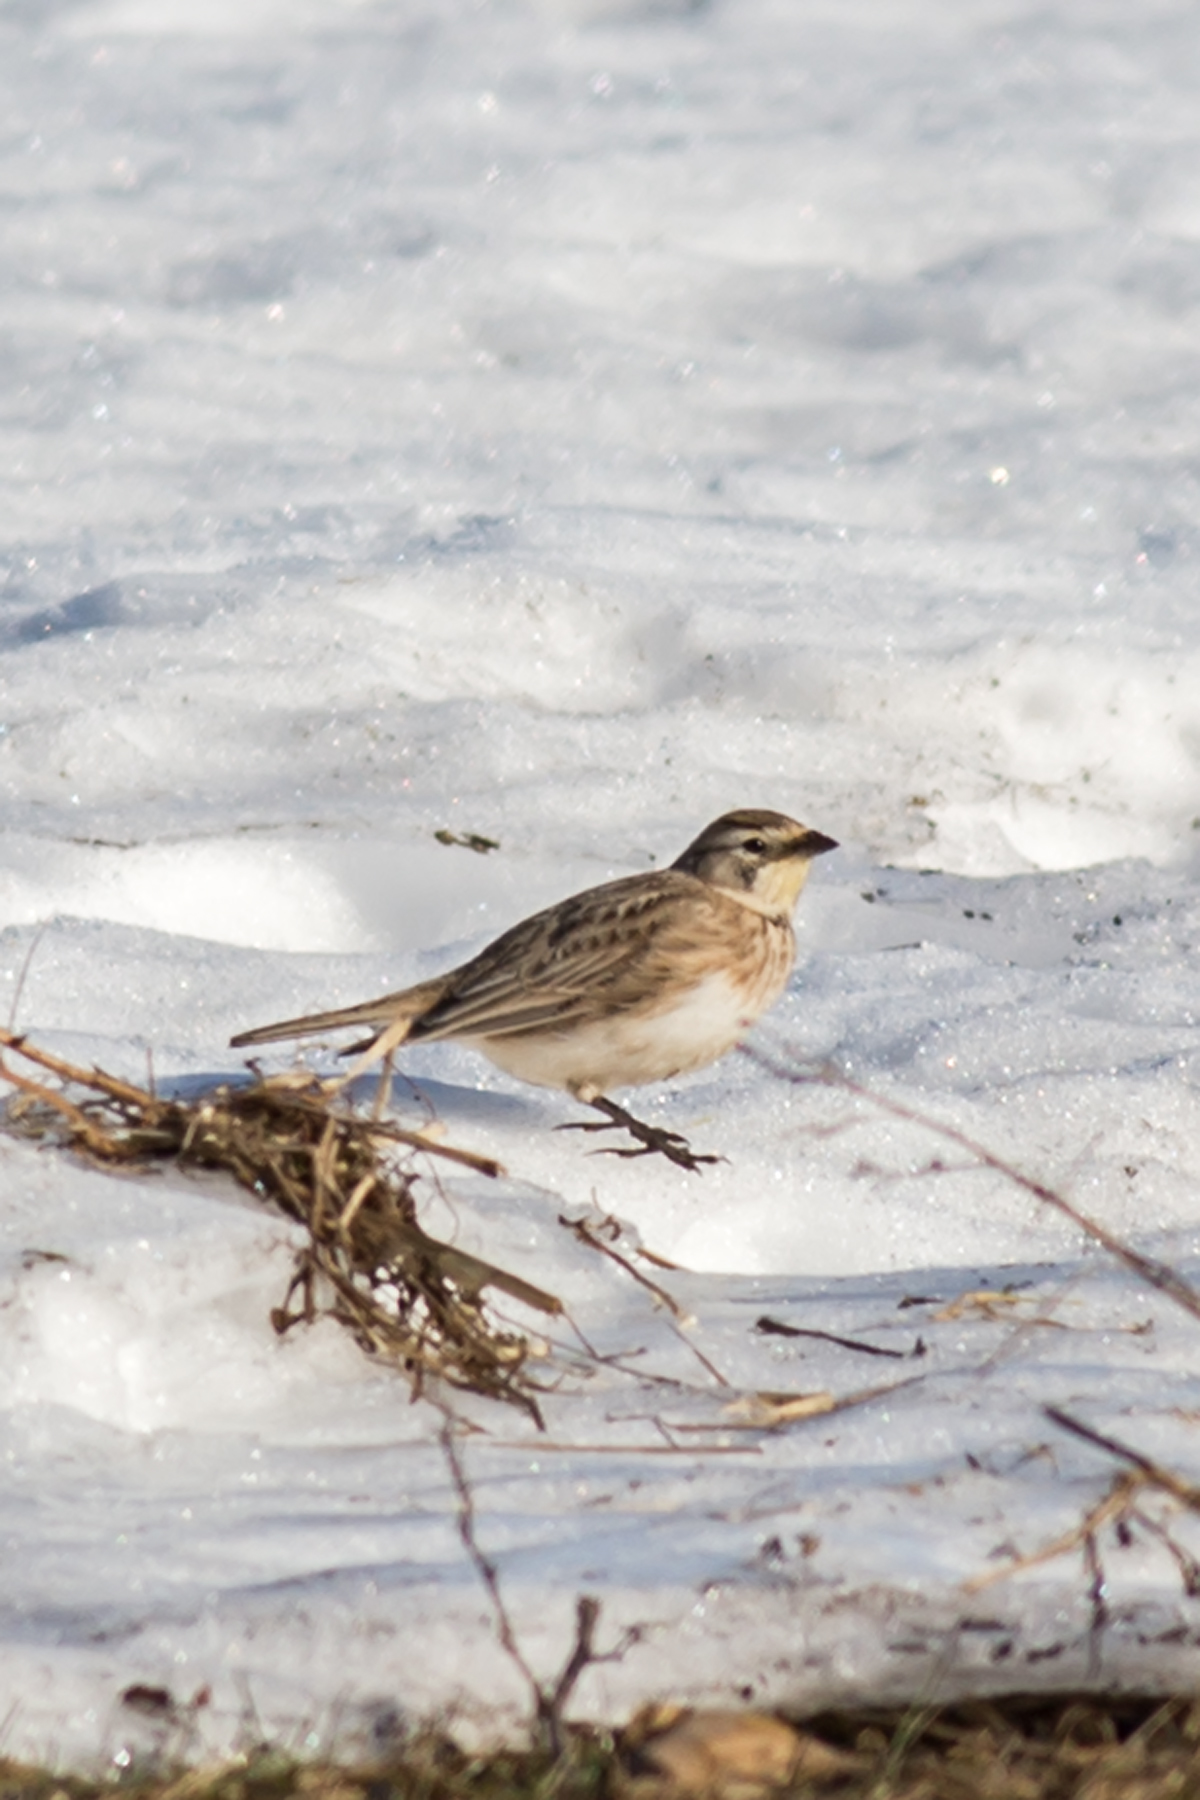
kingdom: Animalia
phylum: Chordata
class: Aves
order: Passeriformes
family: Alaudidae
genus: Eremophila
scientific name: Eremophila alpestris
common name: Horned lark
